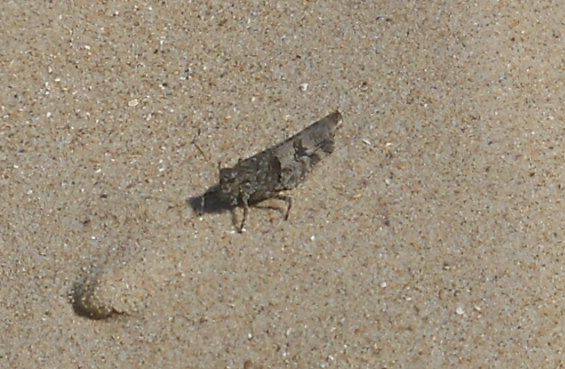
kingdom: Animalia
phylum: Arthropoda
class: Insecta
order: Orthoptera
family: Acrididae
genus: Oedipoda
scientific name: Oedipoda caerulescens
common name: Blue-winged grasshopper
